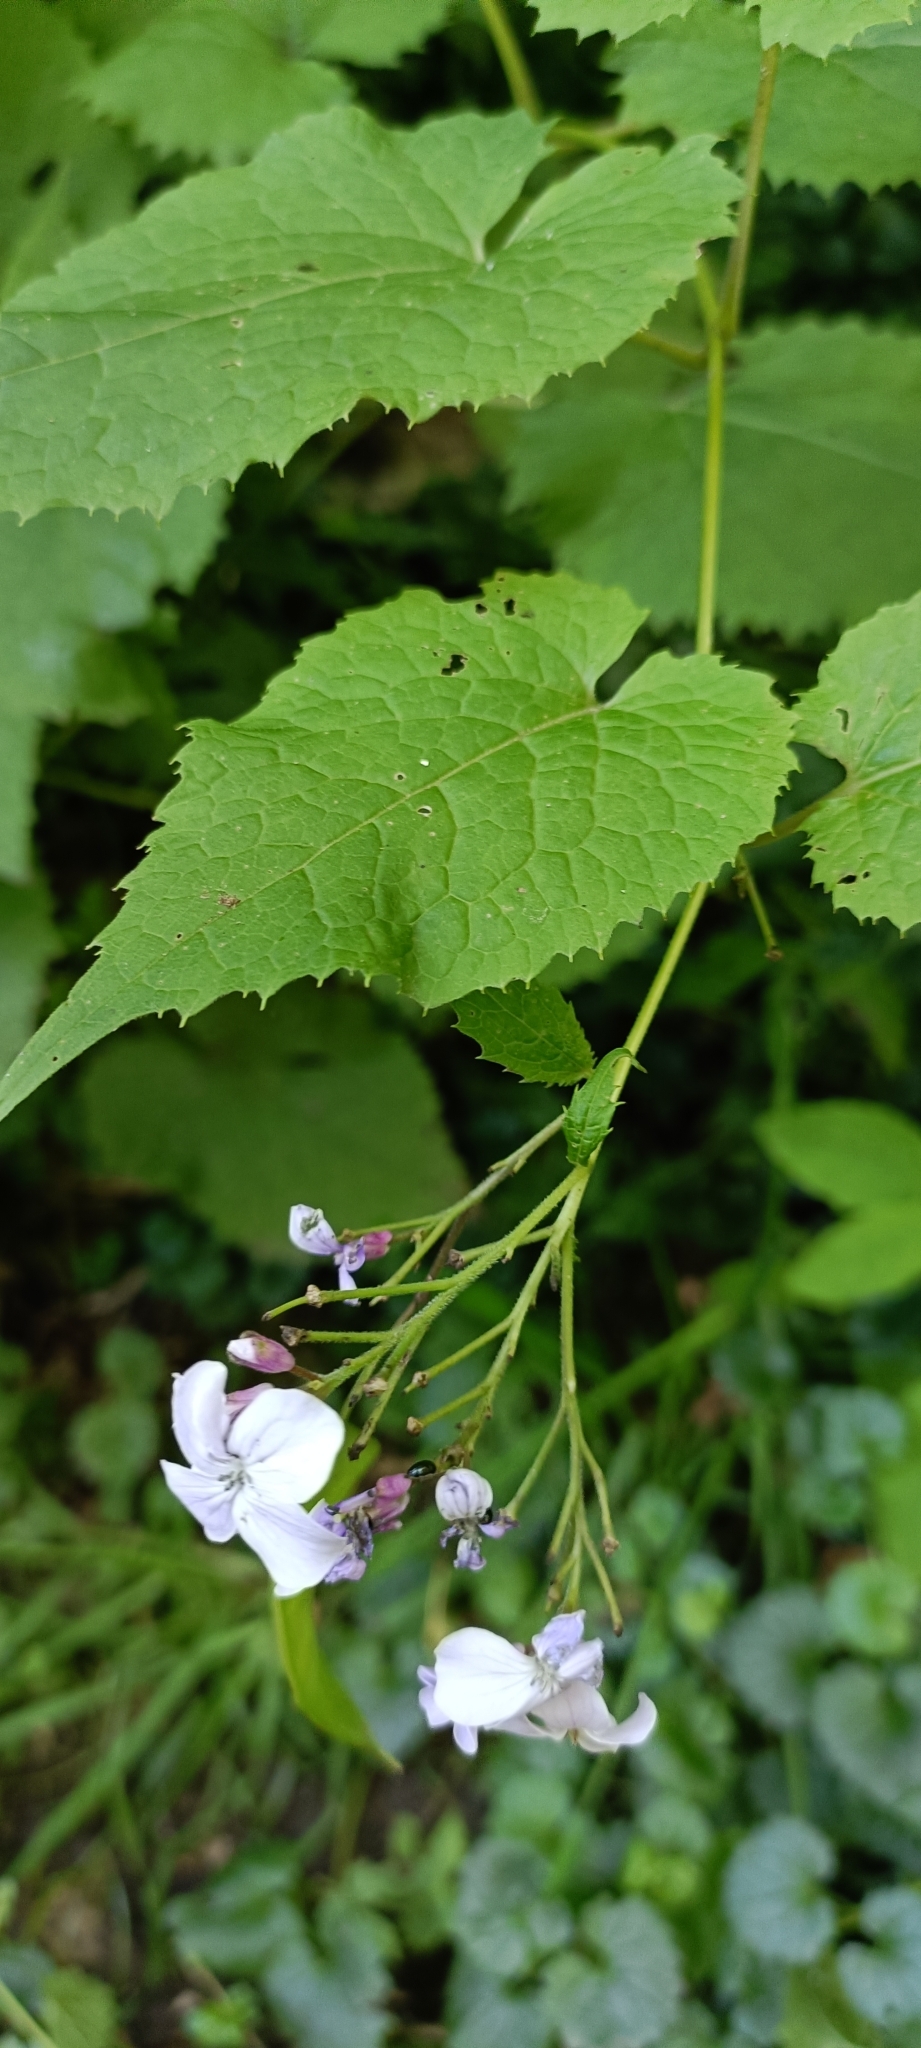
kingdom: Plantae
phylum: Tracheophyta
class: Magnoliopsida
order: Brassicales
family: Brassicaceae
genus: Lunaria
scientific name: Lunaria rediviva
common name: Perennial honesty
